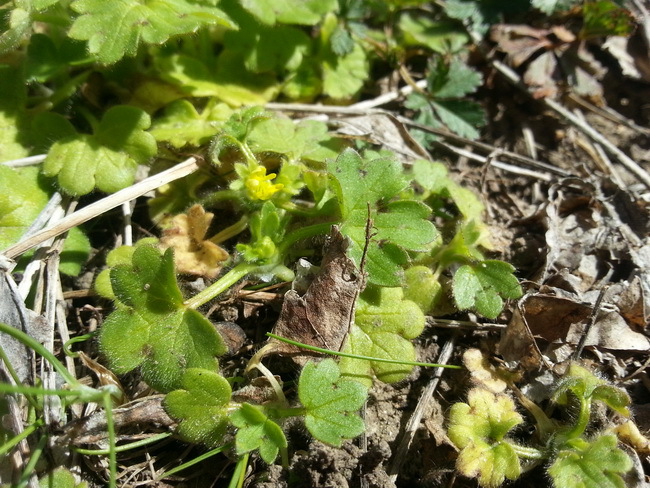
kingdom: Plantae
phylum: Tracheophyta
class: Magnoliopsida
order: Ranunculales
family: Ranunculaceae
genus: Ranunculus
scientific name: Ranunculus parviflorus
